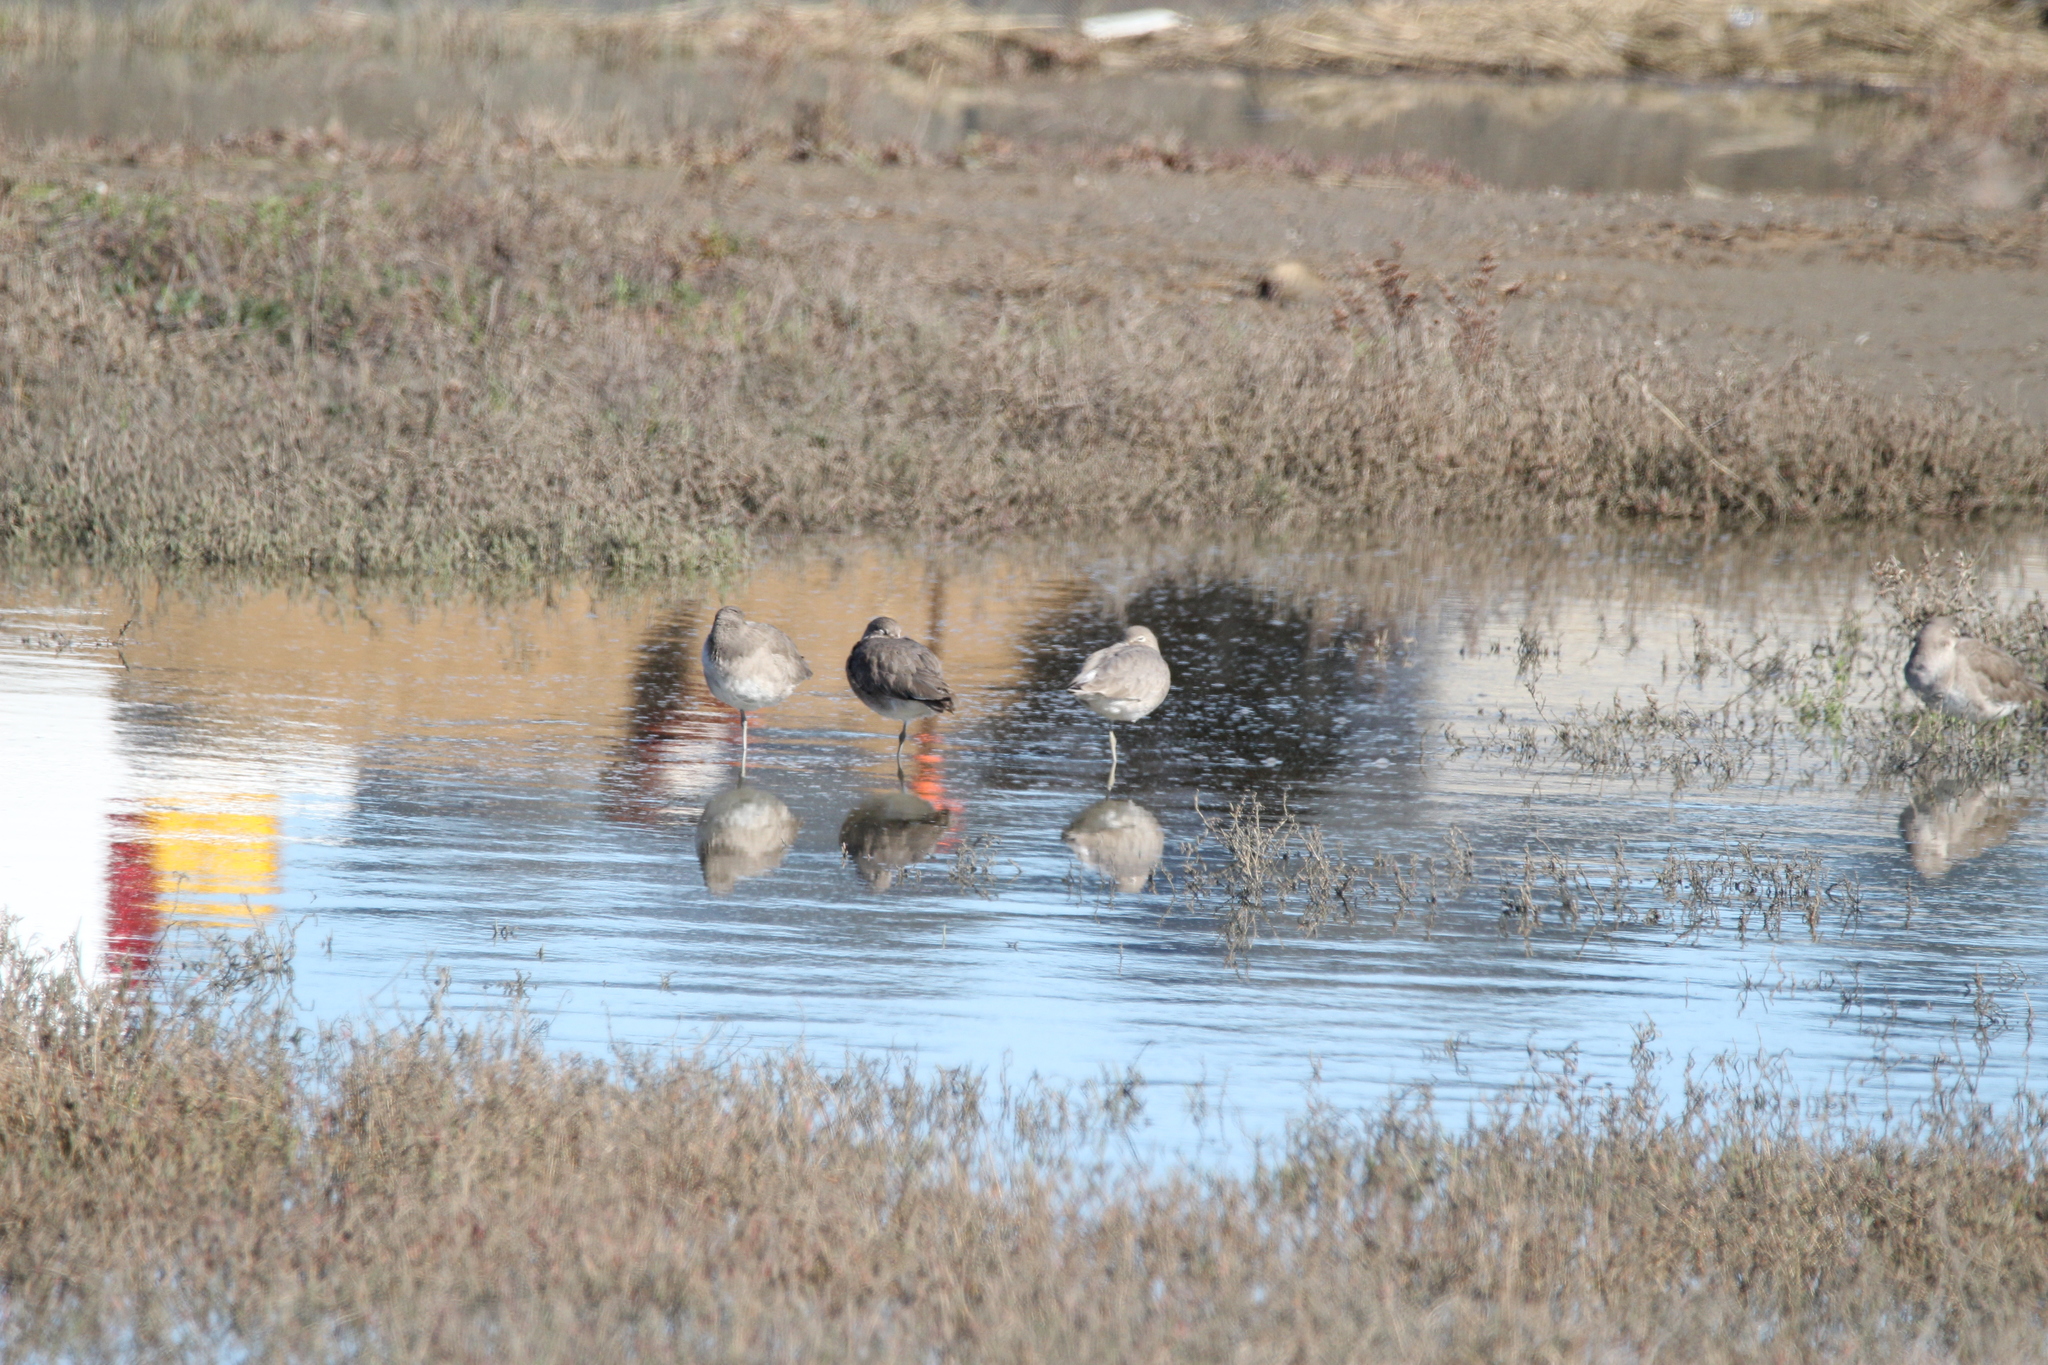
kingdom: Animalia
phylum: Chordata
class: Aves
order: Charadriiformes
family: Scolopacidae
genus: Tringa
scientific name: Tringa semipalmata
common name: Willet
